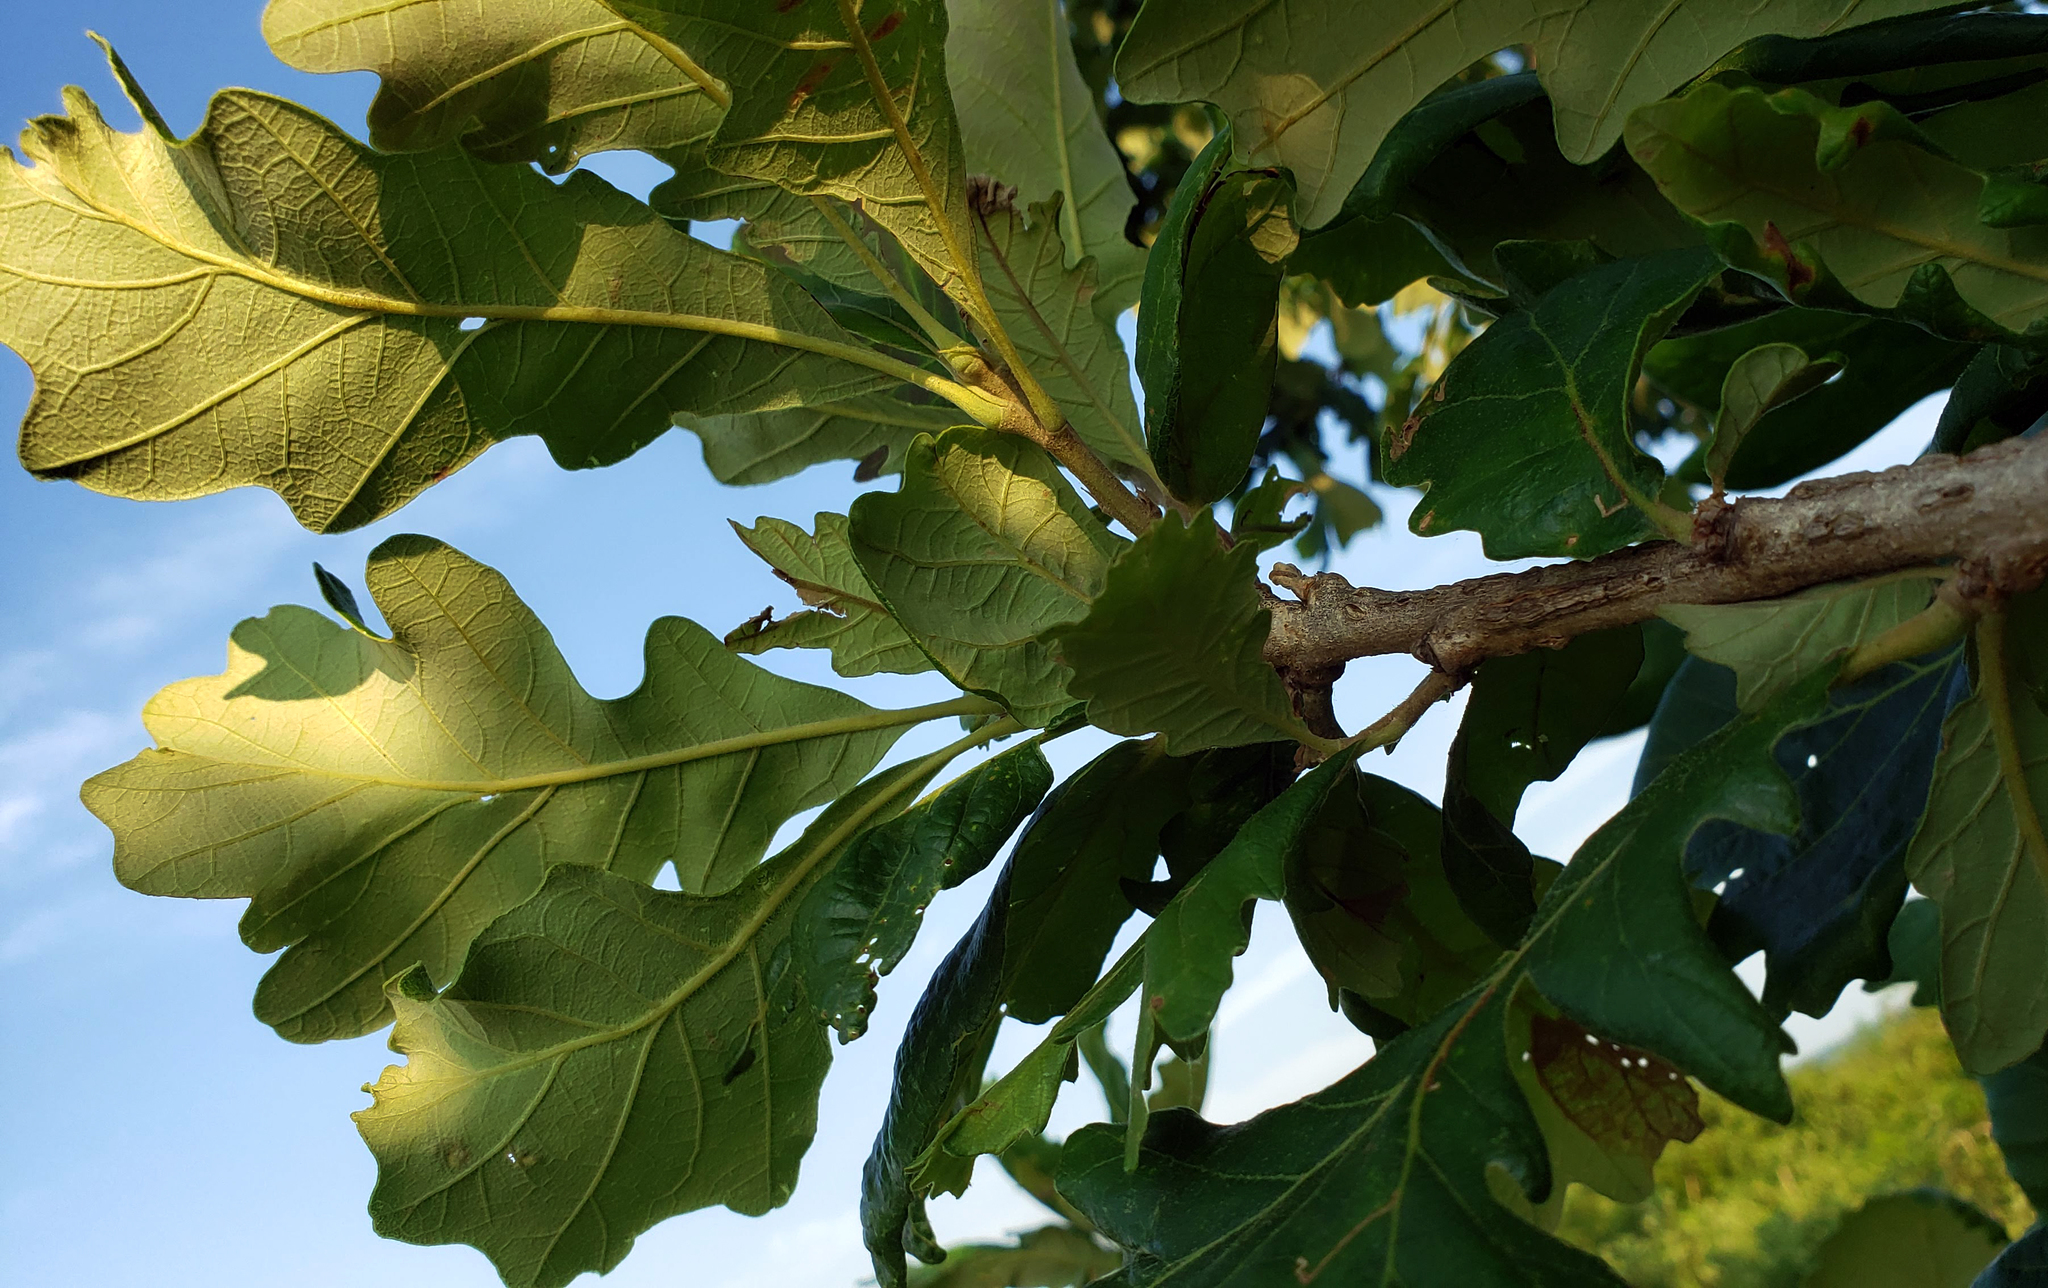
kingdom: Plantae
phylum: Tracheophyta
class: Magnoliopsida
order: Fagales
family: Fagaceae
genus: Quercus
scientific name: Quercus macrocarpa
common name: Bur oak
